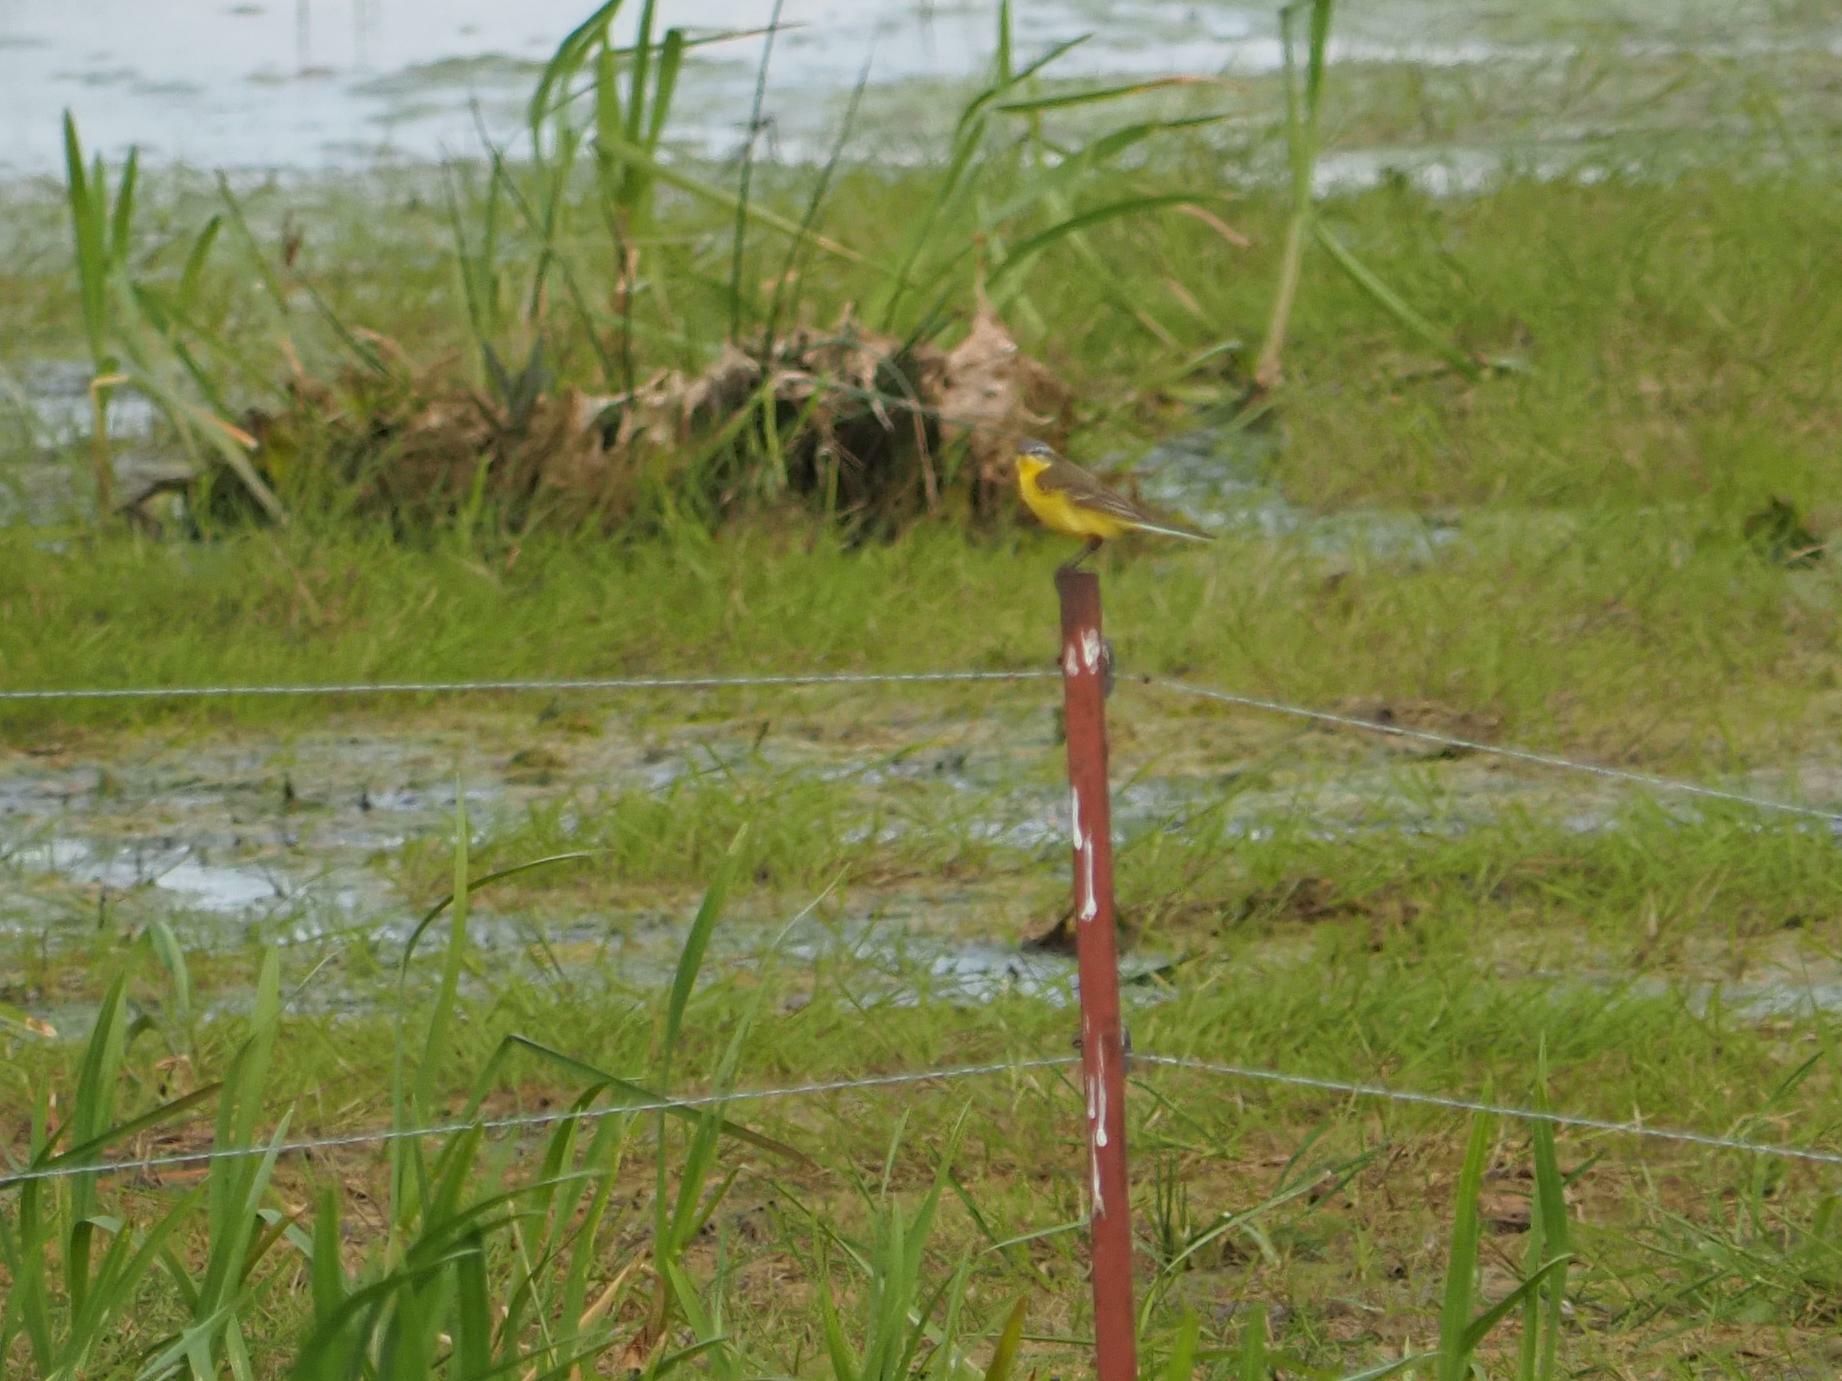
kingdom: Animalia
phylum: Chordata
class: Aves
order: Passeriformes
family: Motacillidae
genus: Motacilla
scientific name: Motacilla flava
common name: Western yellow wagtail
